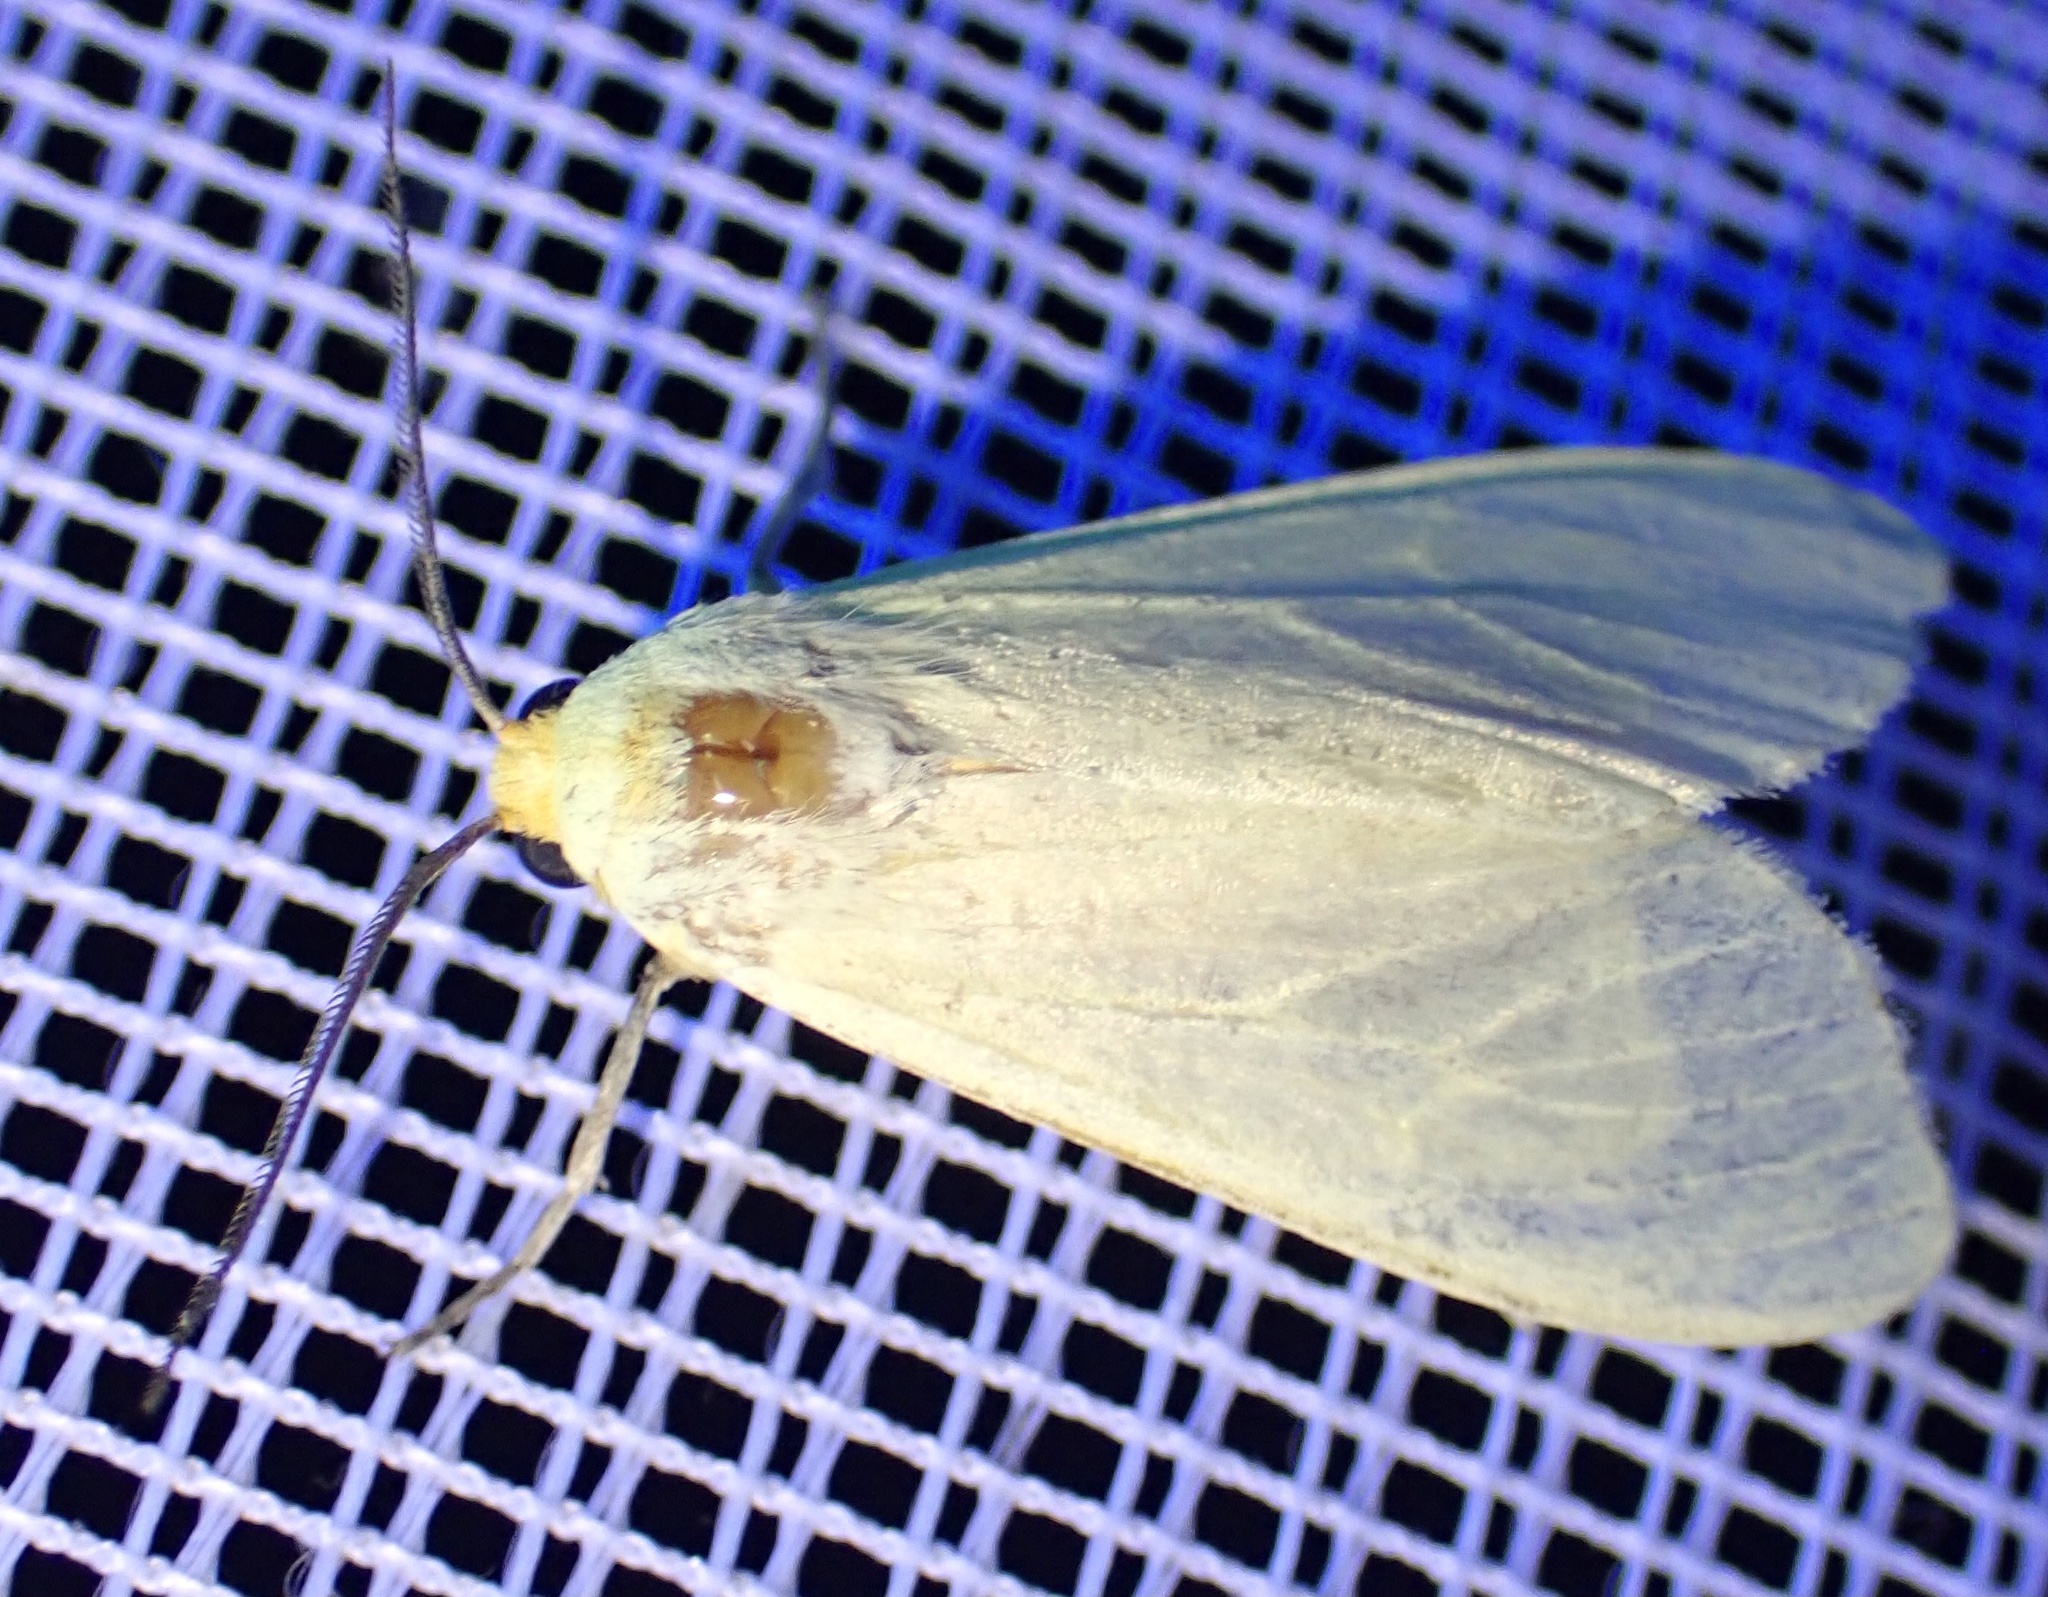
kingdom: Animalia
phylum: Arthropoda
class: Insecta
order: Lepidoptera
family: Erebidae
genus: Pareuchaetes
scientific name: Pareuchaetes pseudoinsulata
